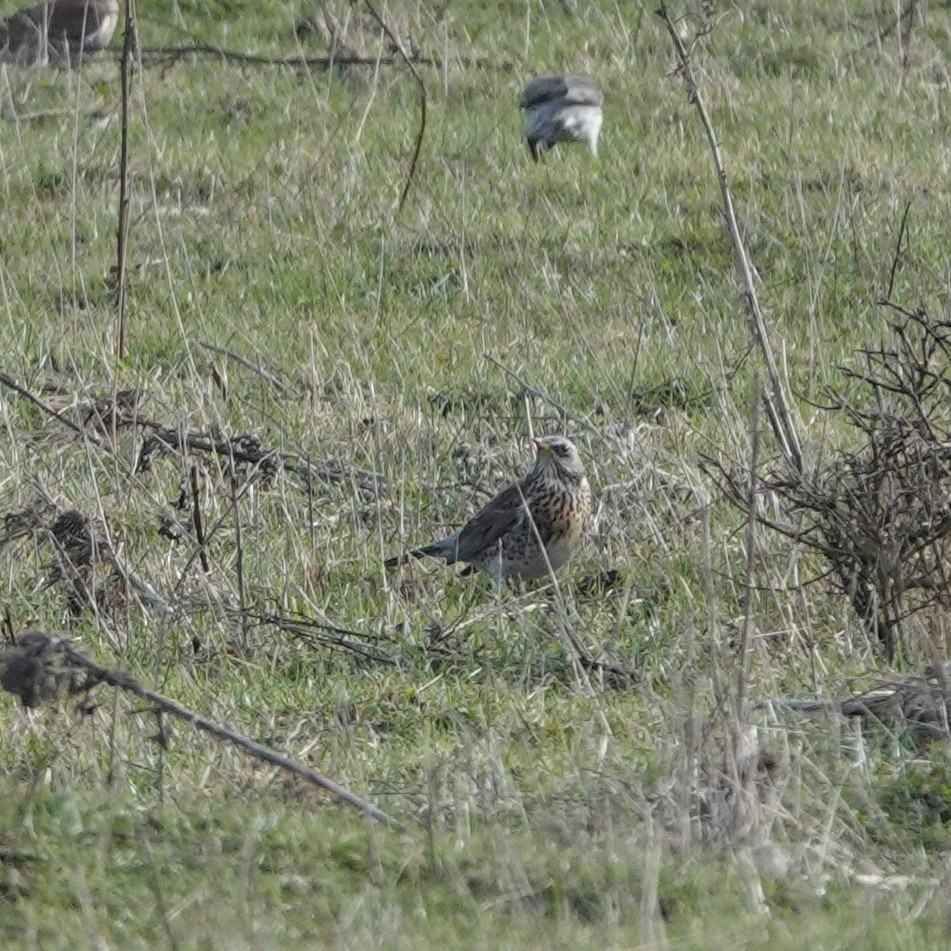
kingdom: Animalia
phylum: Chordata
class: Aves
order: Passeriformes
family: Turdidae
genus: Turdus
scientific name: Turdus pilaris
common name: Fieldfare
